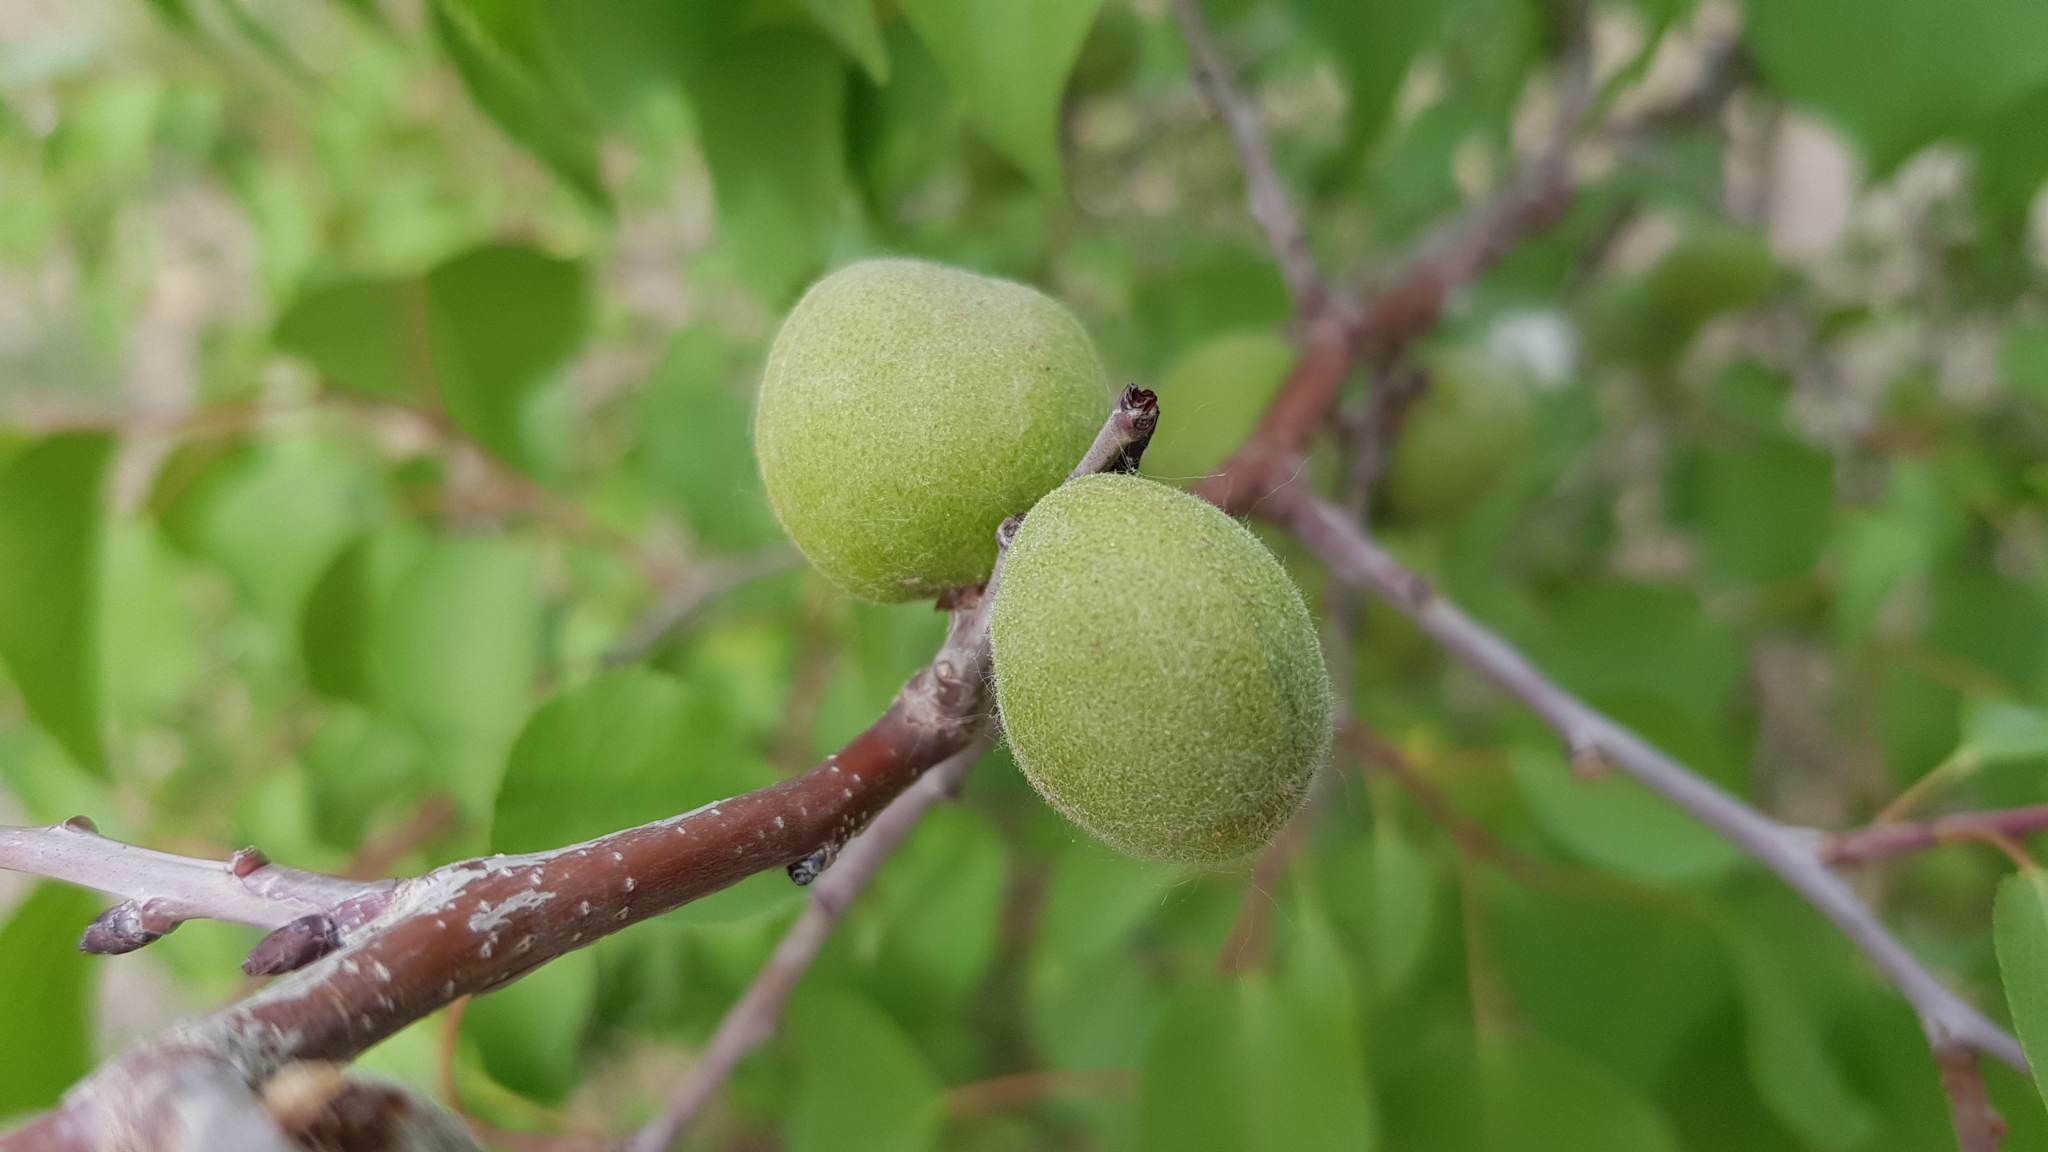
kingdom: Plantae
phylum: Tracheophyta
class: Magnoliopsida
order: Rosales
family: Rosaceae
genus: Prunus
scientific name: Prunus sibirica
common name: Siberian apricot
